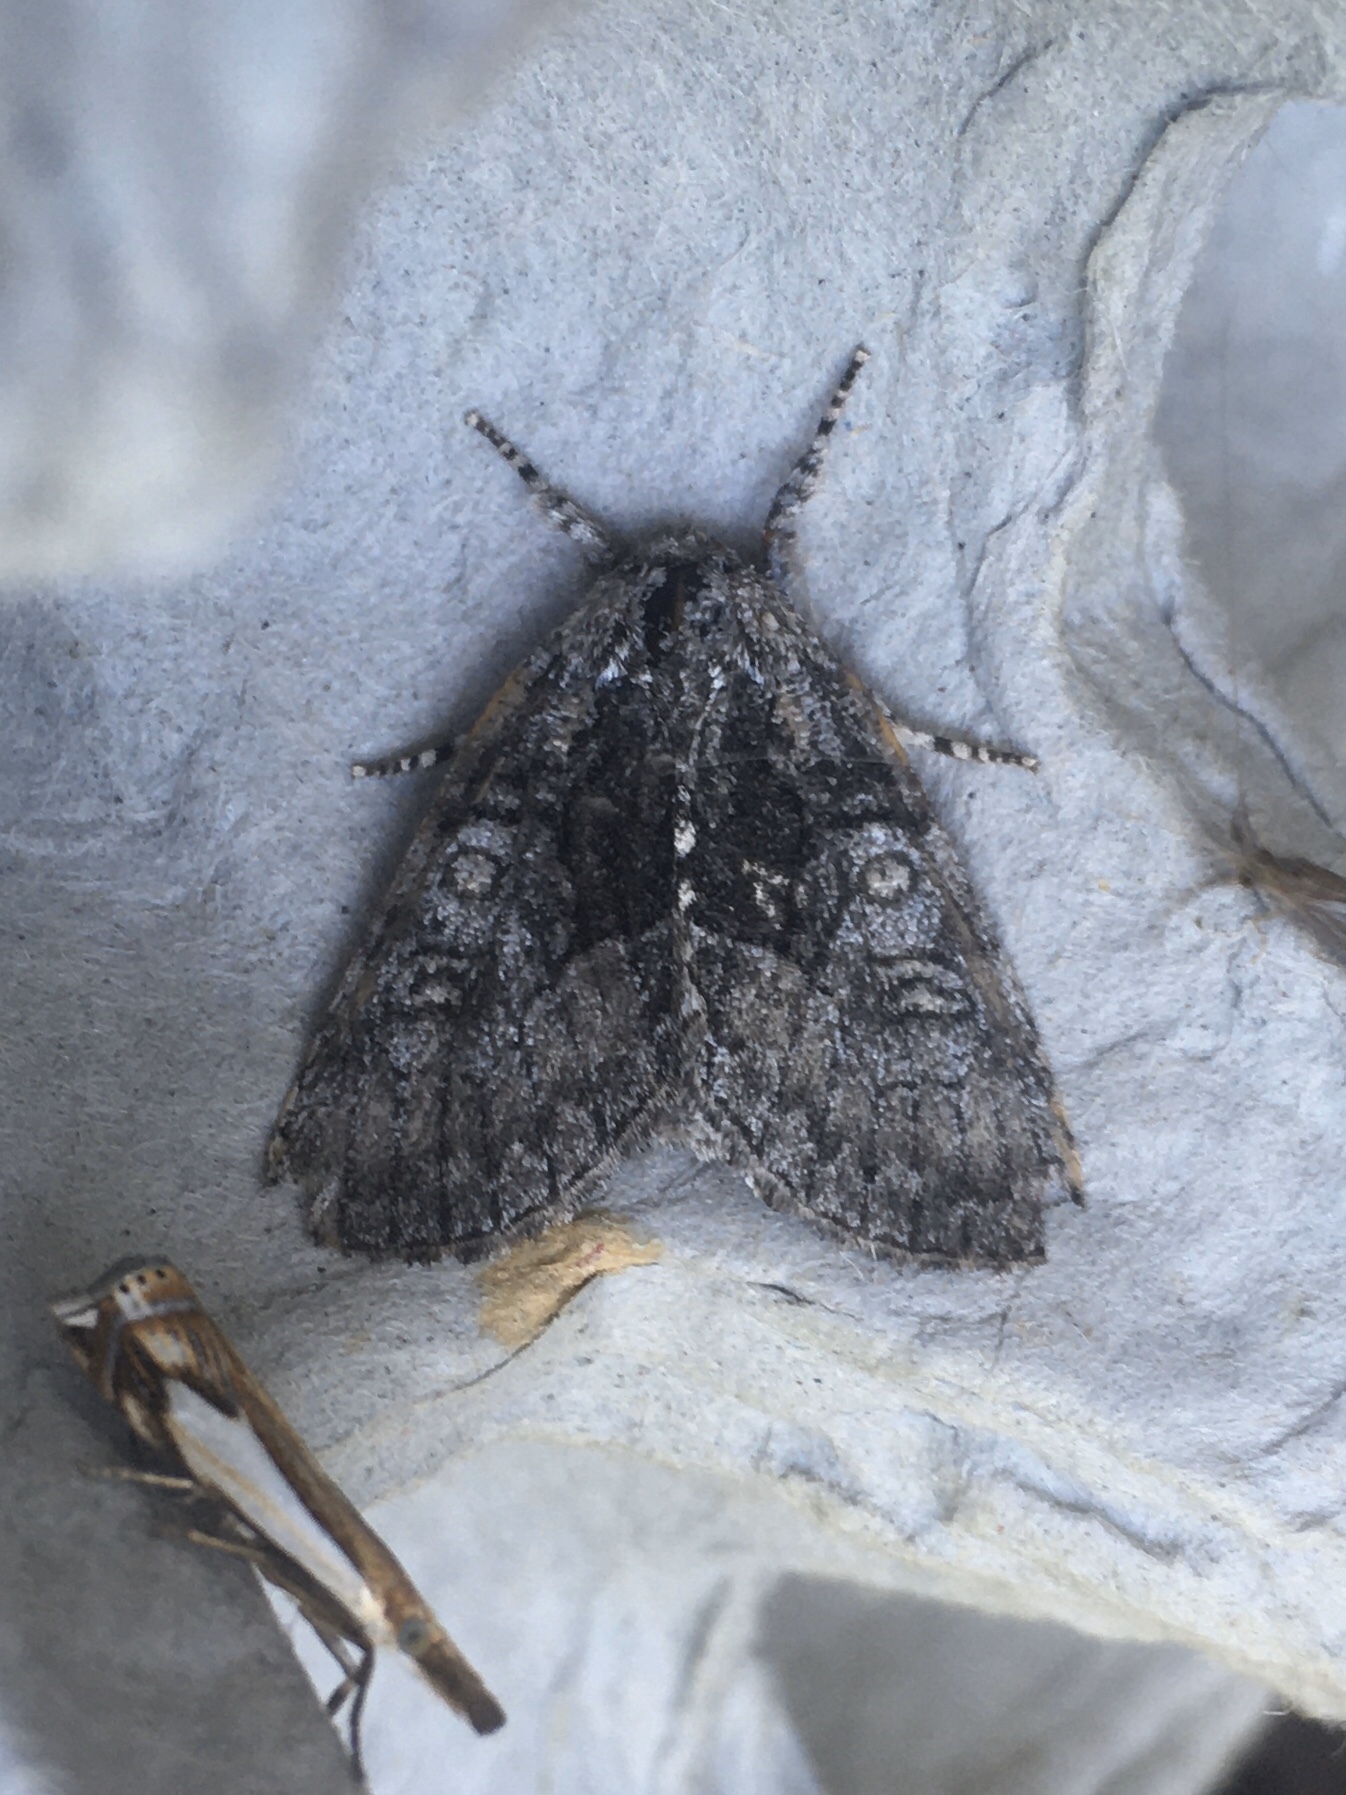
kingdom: Animalia
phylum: Arthropoda
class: Insecta
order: Lepidoptera
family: Noctuidae
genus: Raphia
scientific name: Raphia frater
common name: Brother
